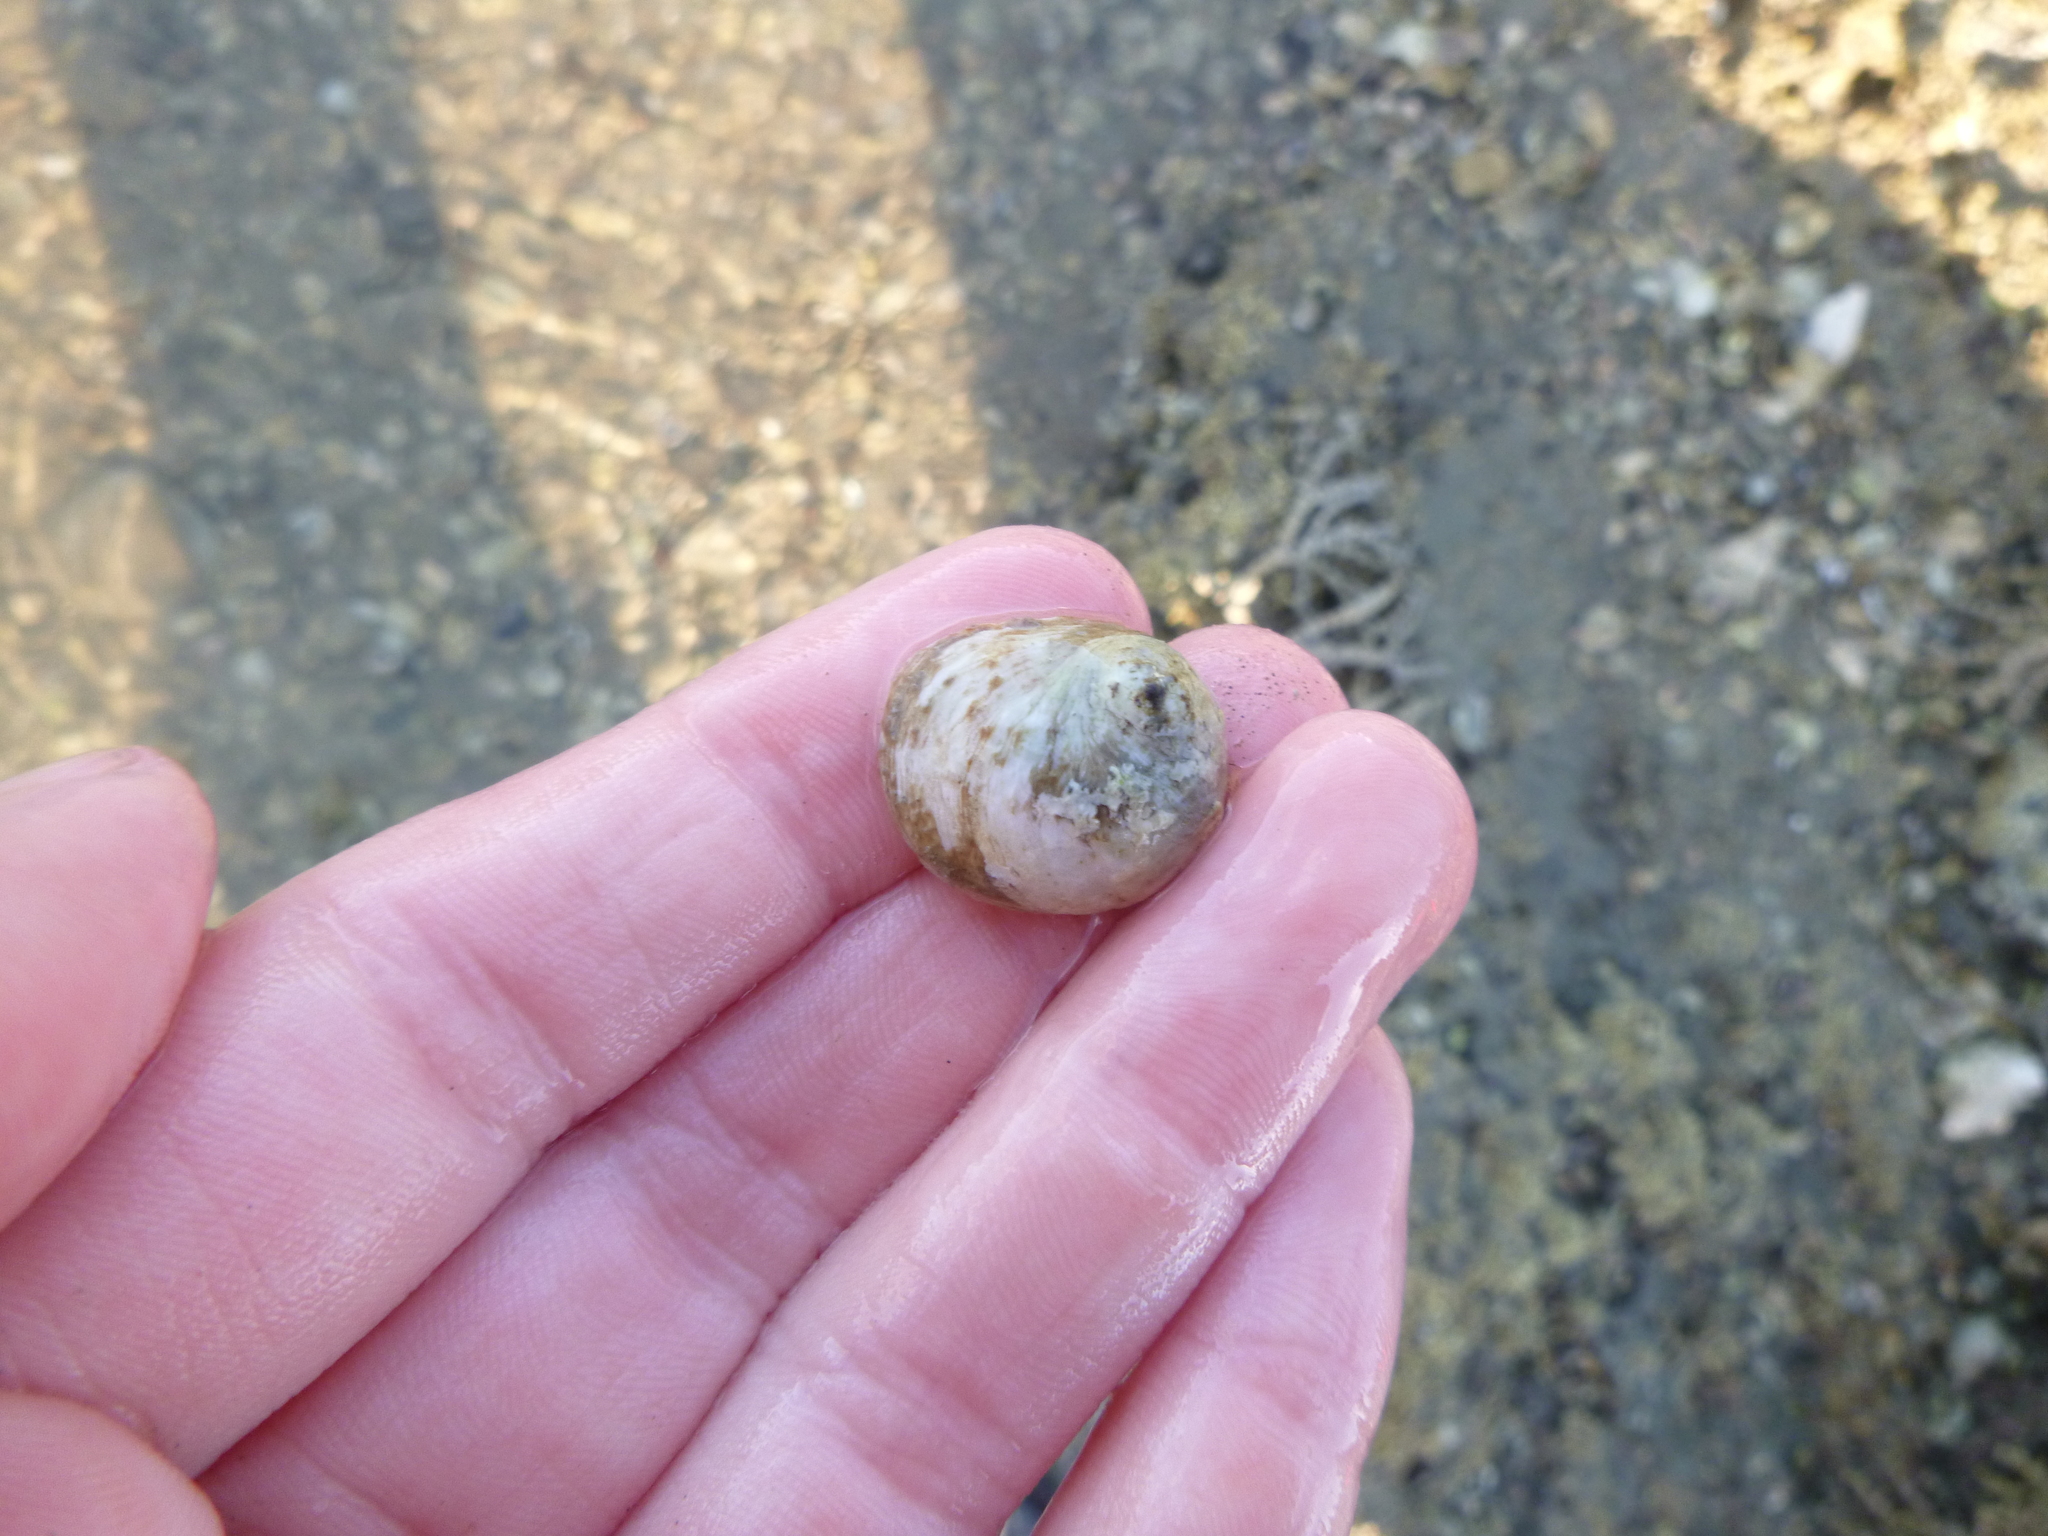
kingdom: Animalia
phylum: Mollusca
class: Gastropoda
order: Littorinimorpha
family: Calyptraeidae
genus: Sigapatella
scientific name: Sigapatella novaezelandiae
